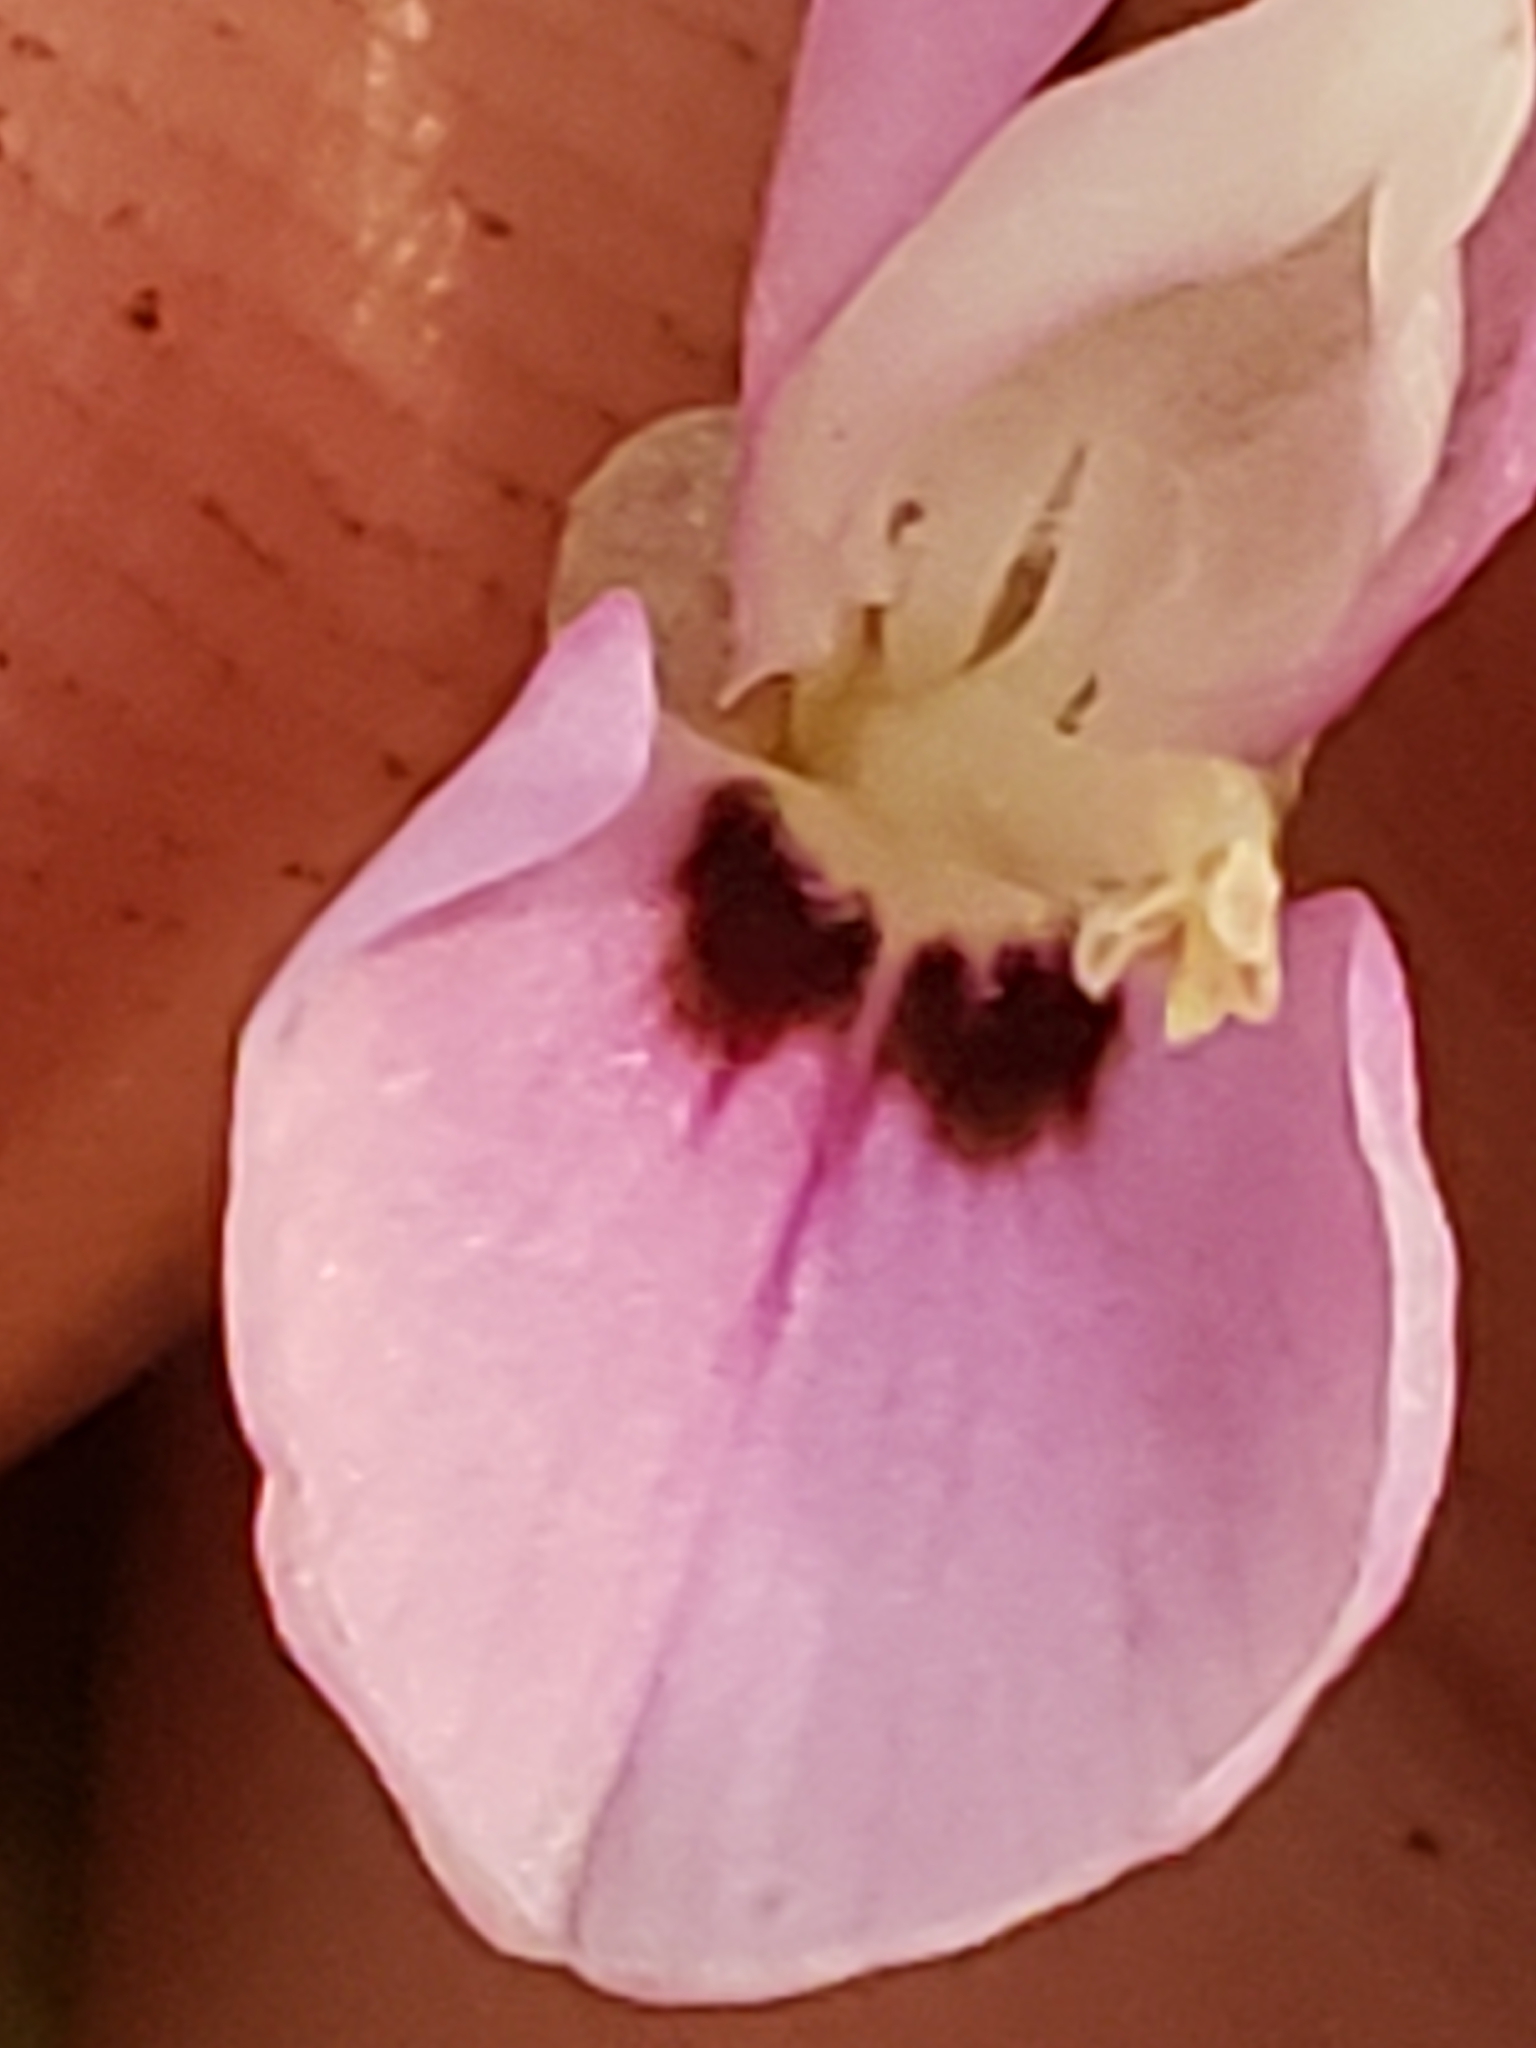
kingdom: Plantae
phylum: Tracheophyta
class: Magnoliopsida
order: Fabales
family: Fabaceae
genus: Hylodesmum
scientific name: Hylodesmum nudiflorum
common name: Bare-stemmed tick-trefoil
